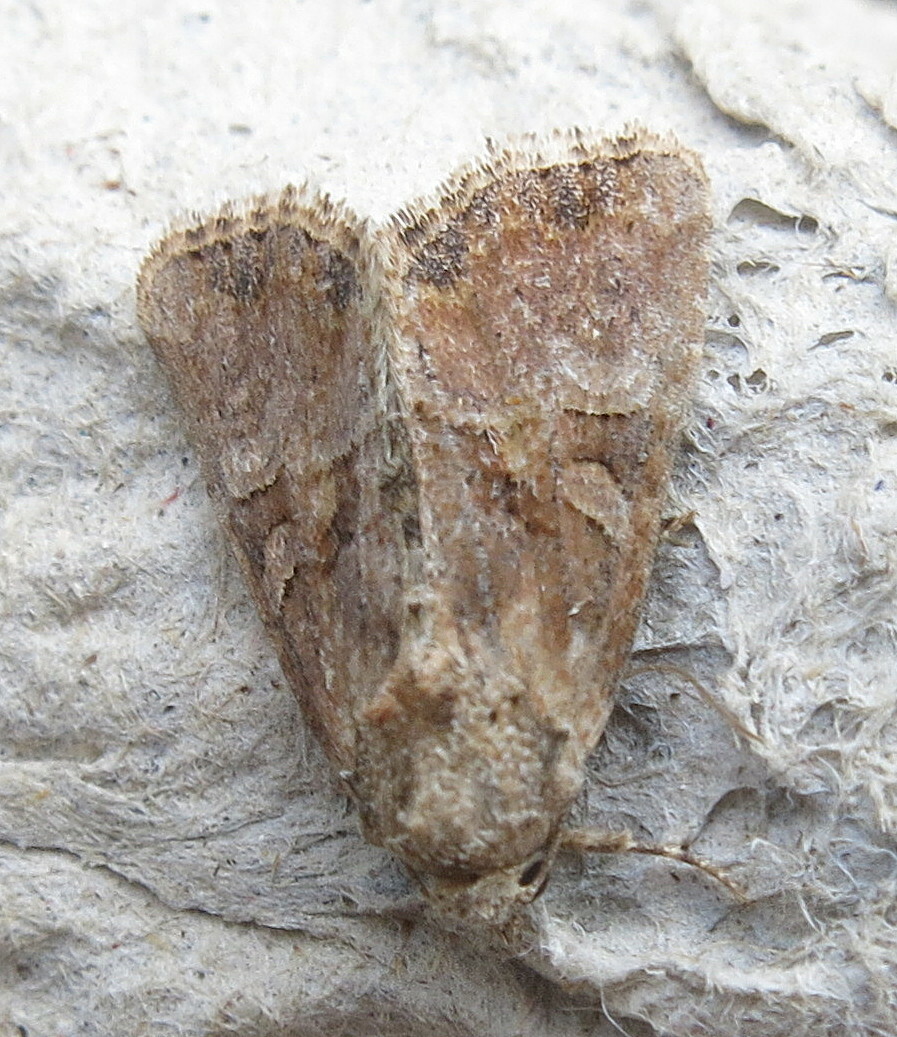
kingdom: Animalia
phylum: Arthropoda
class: Insecta
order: Lepidoptera
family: Noctuidae
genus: Mesoligia
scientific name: Mesoligia furuncula
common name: Cloaked minor
